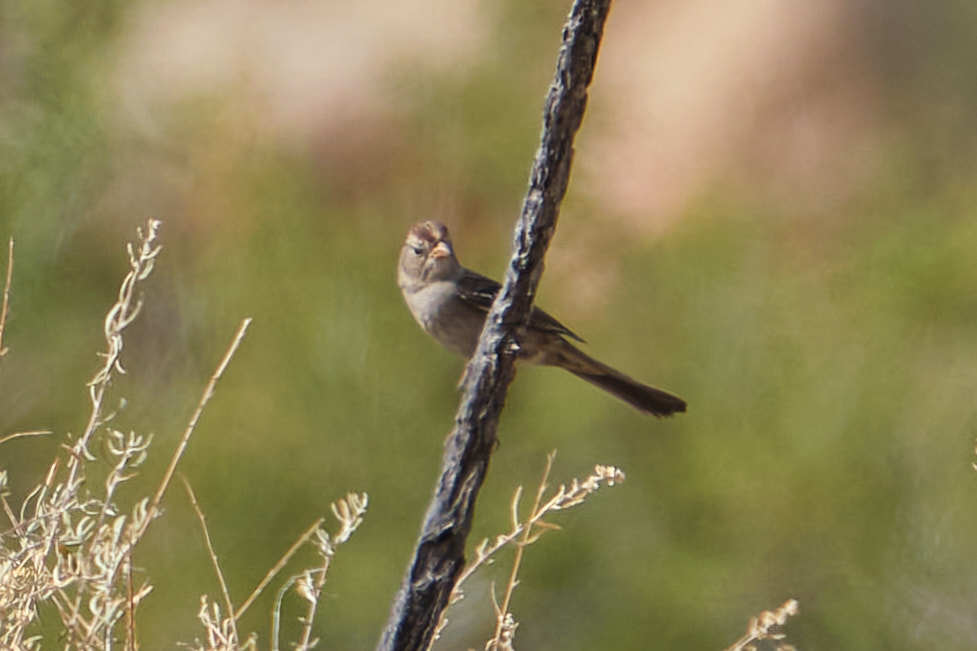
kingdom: Animalia
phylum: Chordata
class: Aves
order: Passeriformes
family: Passerellidae
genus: Zonotrichia
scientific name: Zonotrichia leucophrys
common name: White-crowned sparrow
